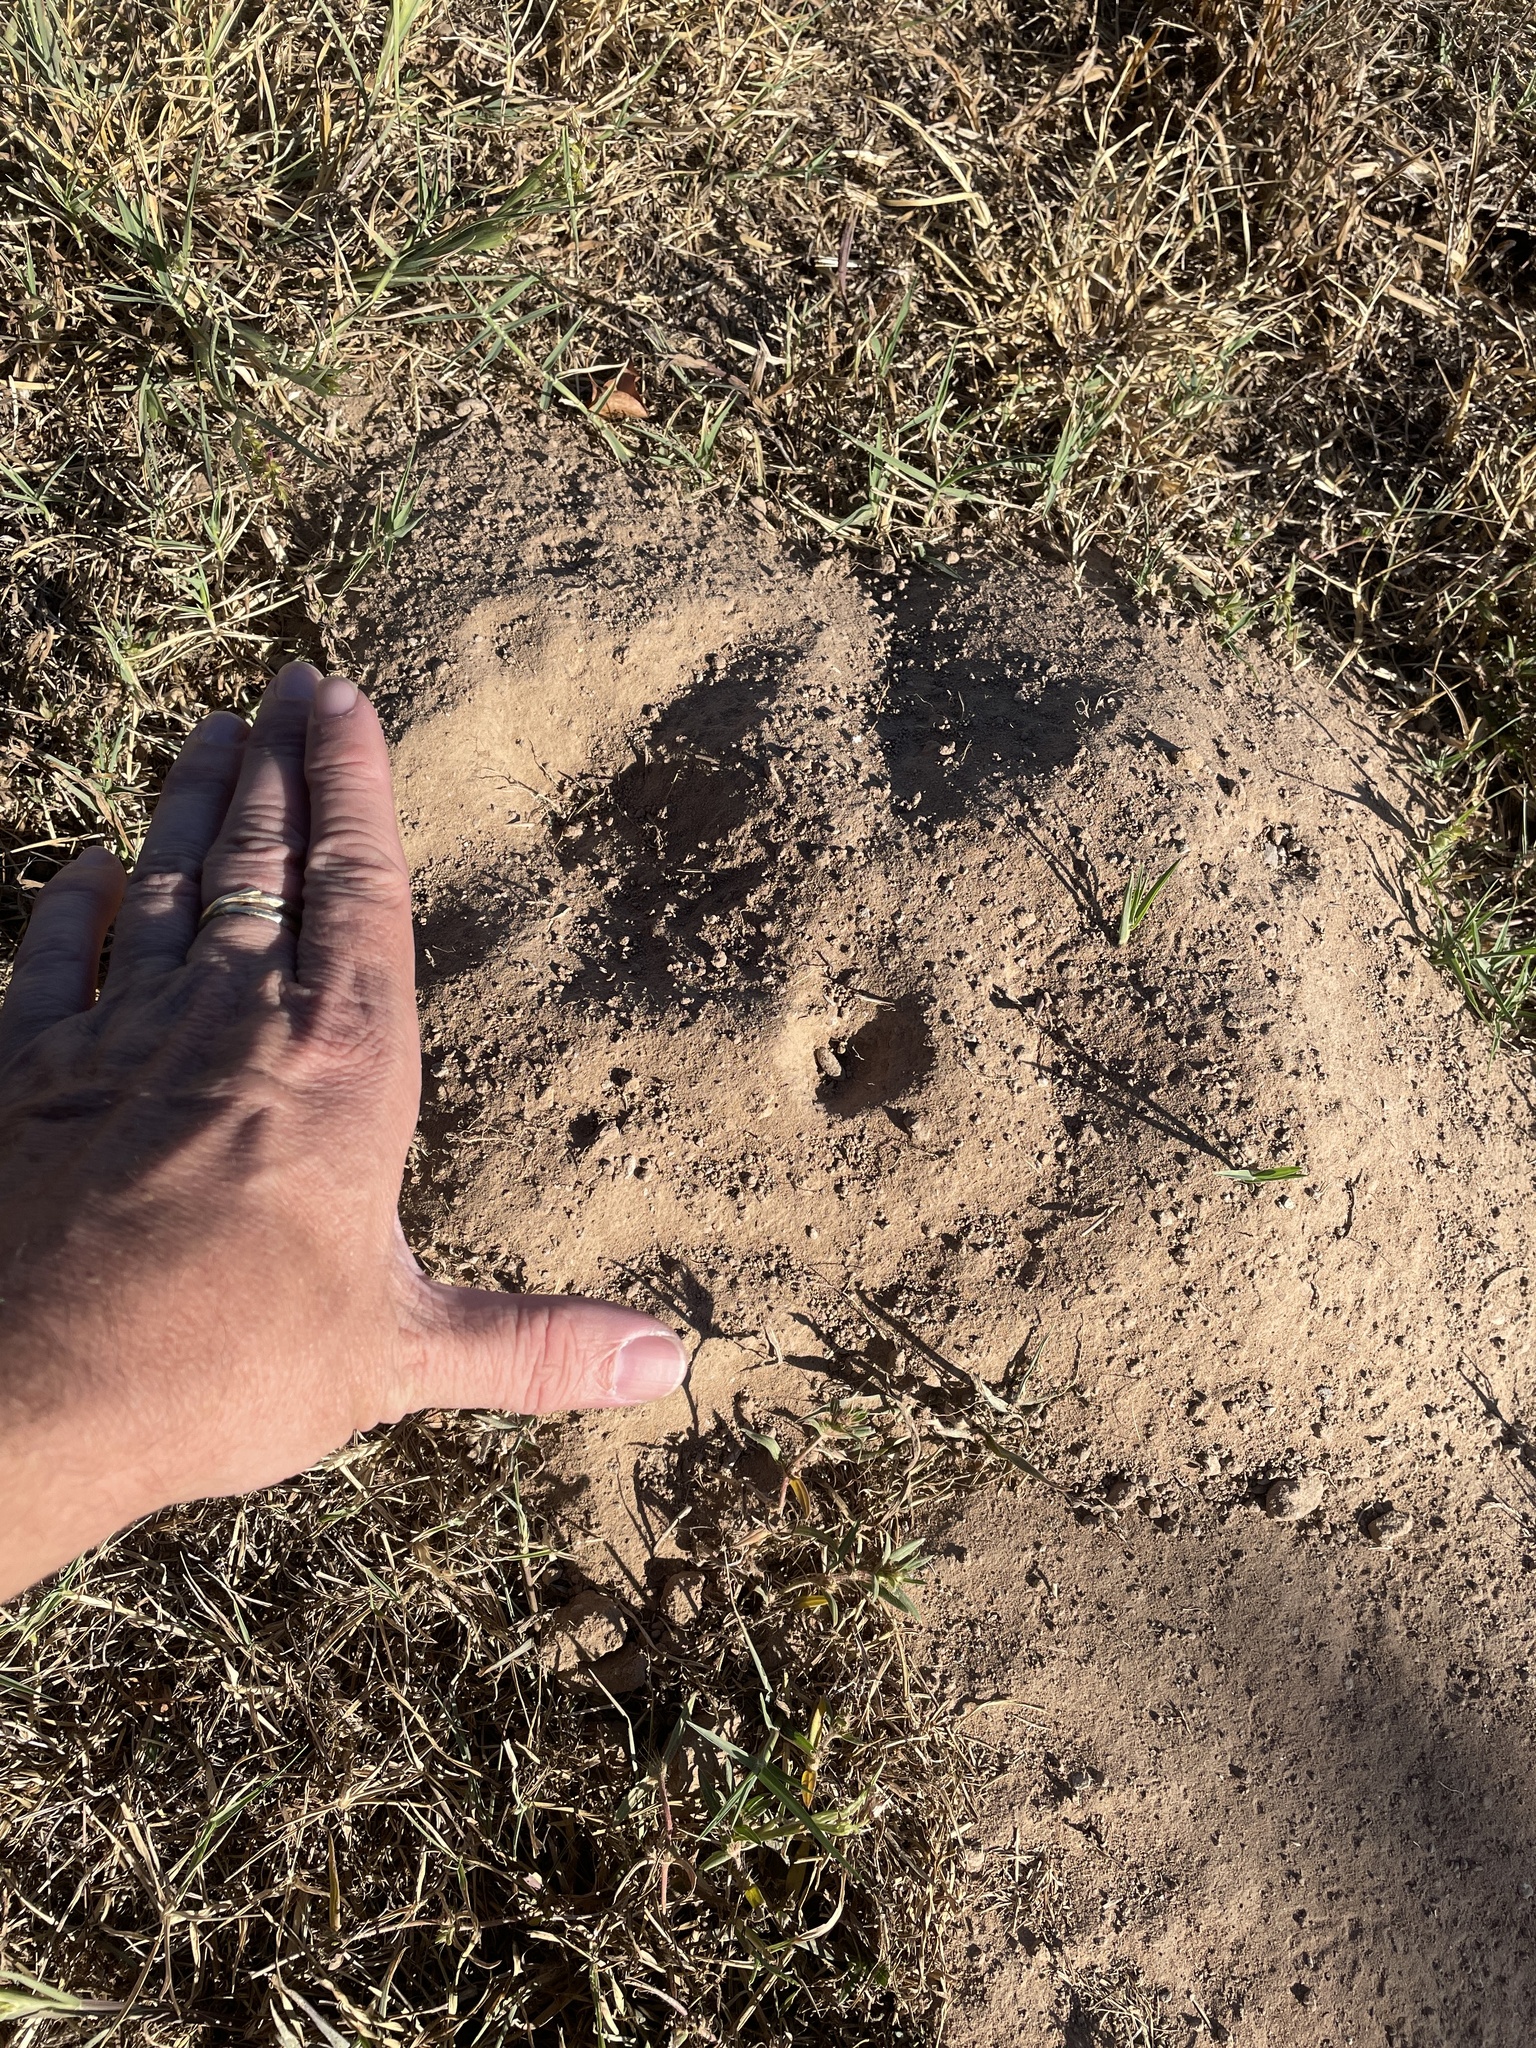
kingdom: Animalia
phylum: Chordata
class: Mammalia
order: Rodentia
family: Geomyidae
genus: Geomys
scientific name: Geomys breviceps
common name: Baird's pocket gopher
